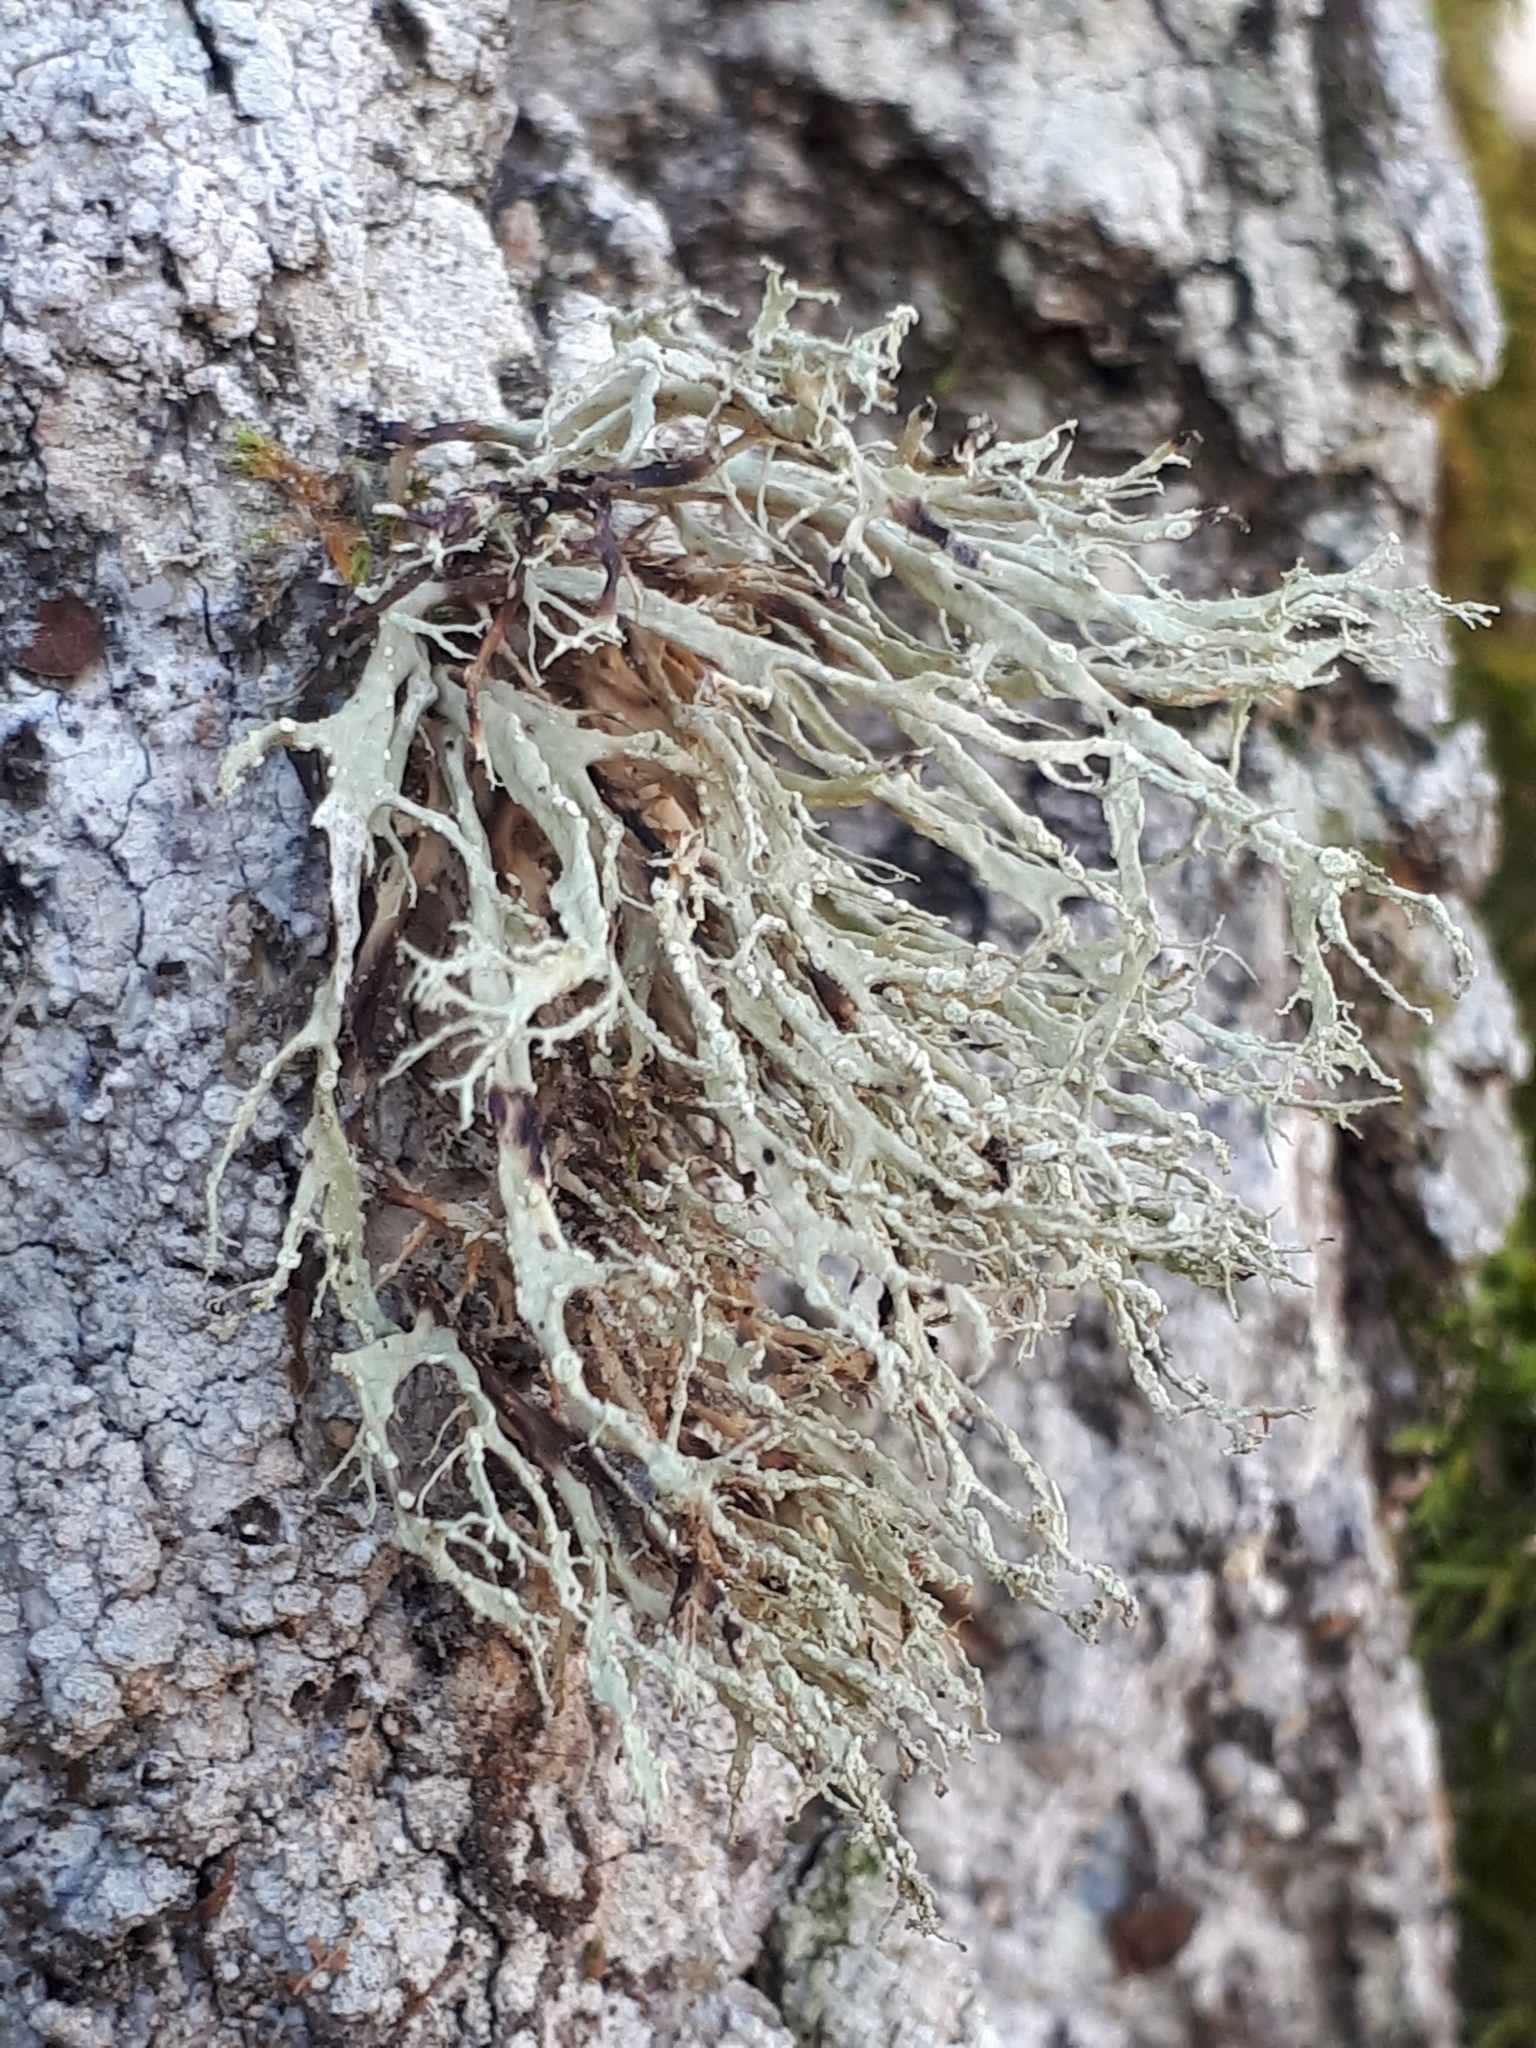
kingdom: Fungi
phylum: Ascomycota
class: Lecanoromycetes
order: Lecanorales
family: Ramalinaceae
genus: Ramalina
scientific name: Ramalina farinacea
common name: Farinose cartilage lichen
